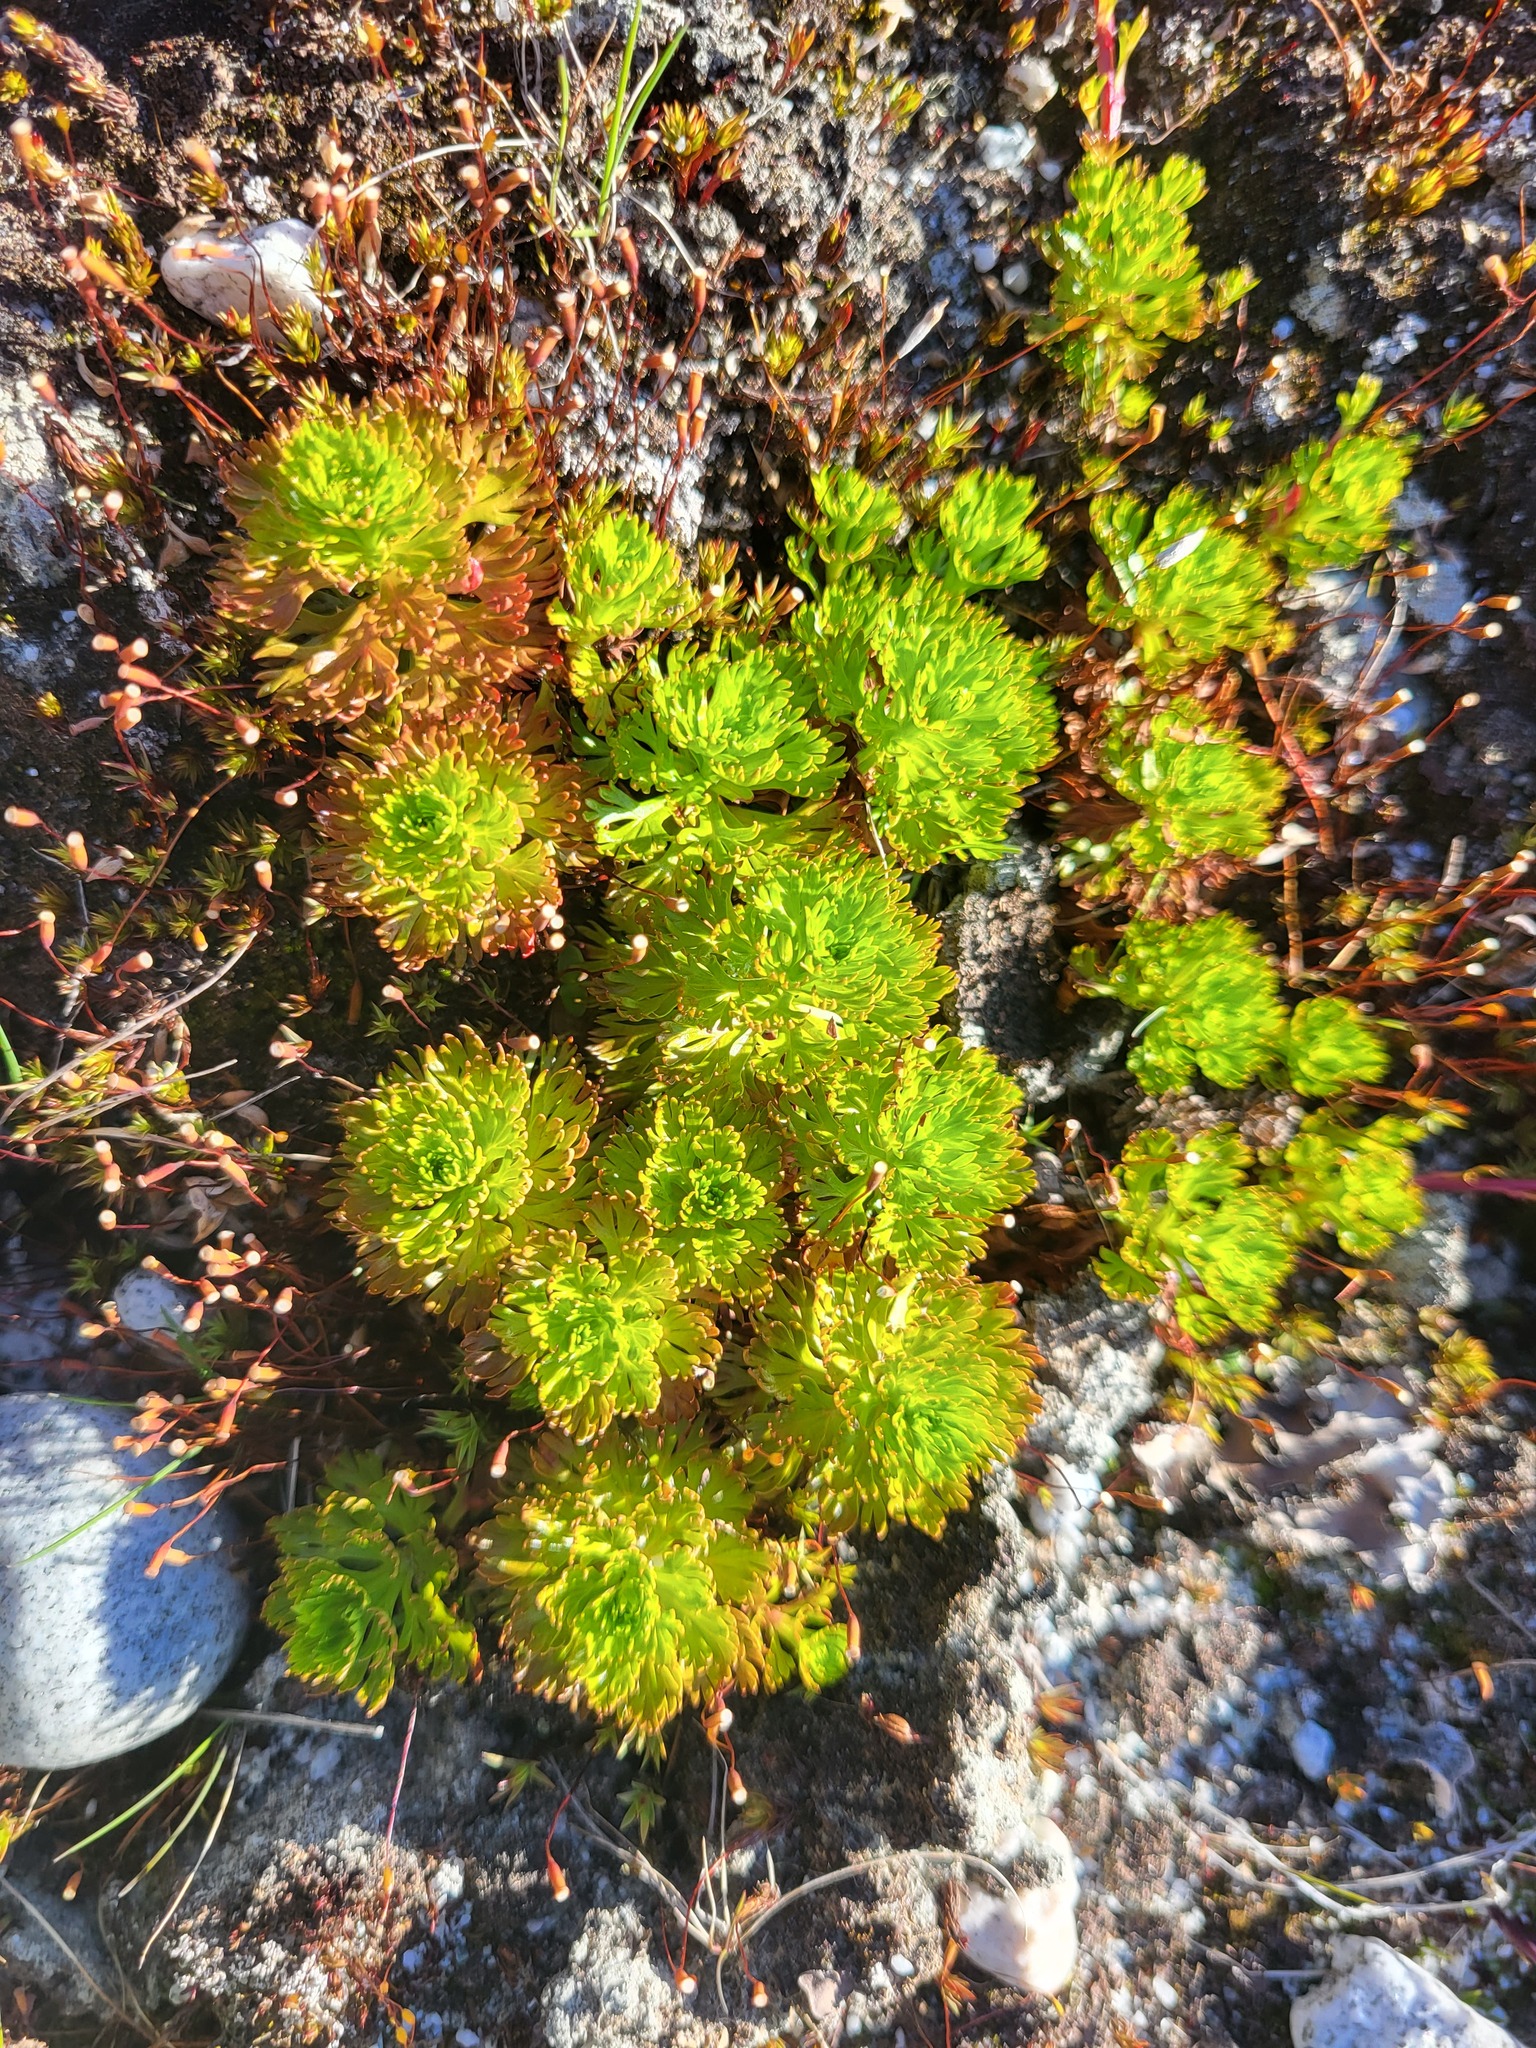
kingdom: Plantae
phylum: Tracheophyta
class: Magnoliopsida
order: Rosales
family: Rosaceae
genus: Luetkea
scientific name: Luetkea pectinata
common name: Partridgefoot
